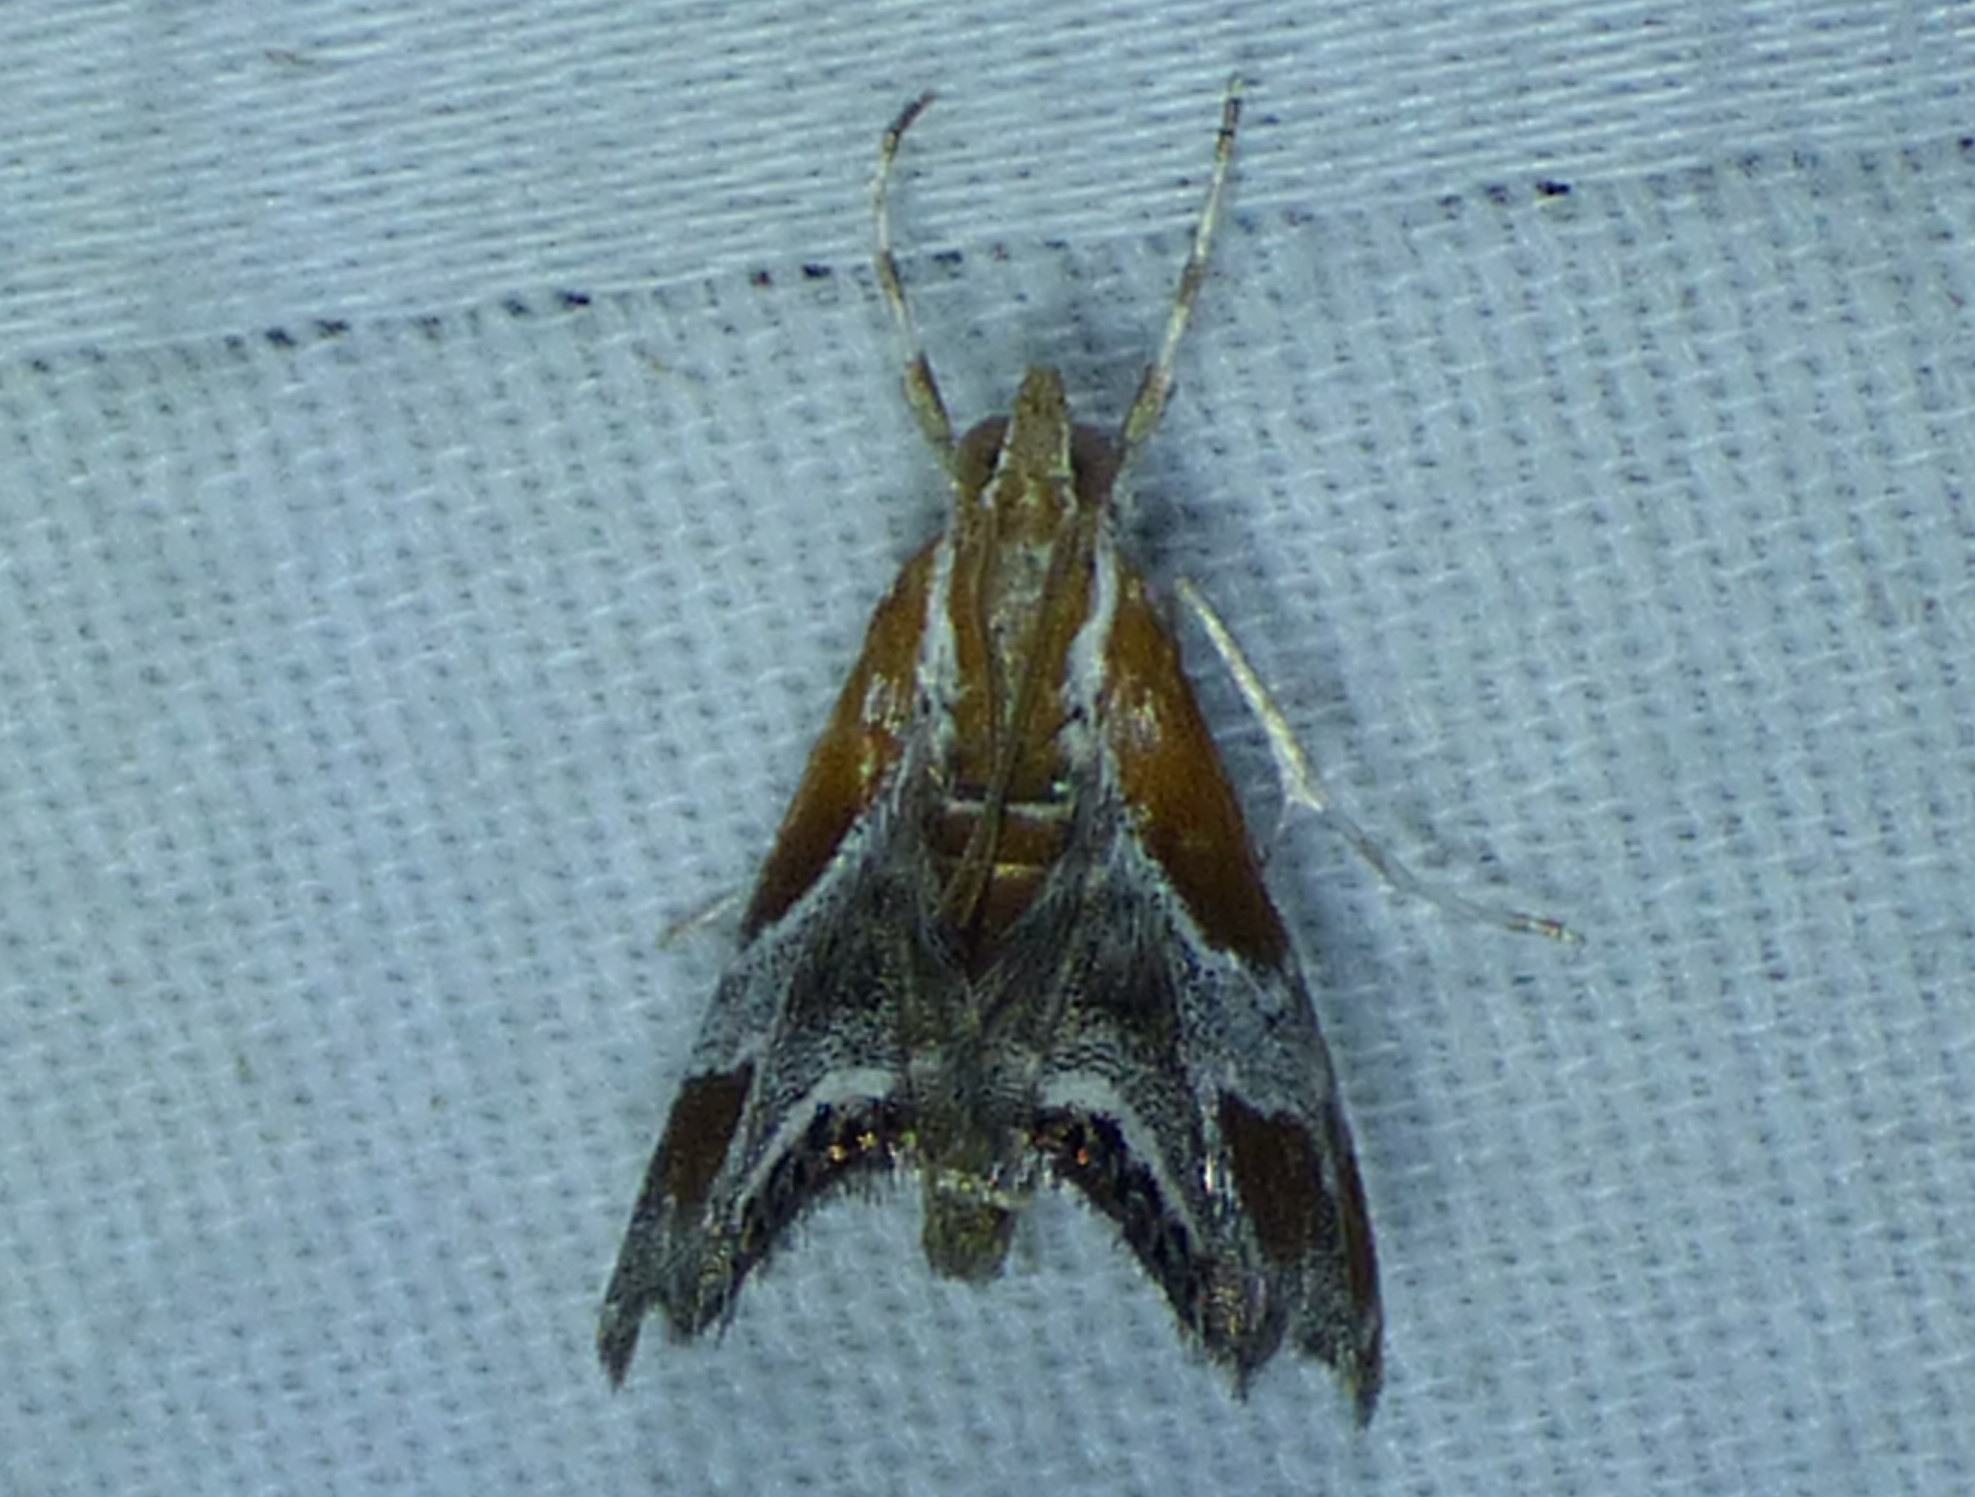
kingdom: Animalia
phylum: Arthropoda
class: Insecta
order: Lepidoptera
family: Crambidae
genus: Chalcoela
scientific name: Chalcoela pegasalis
